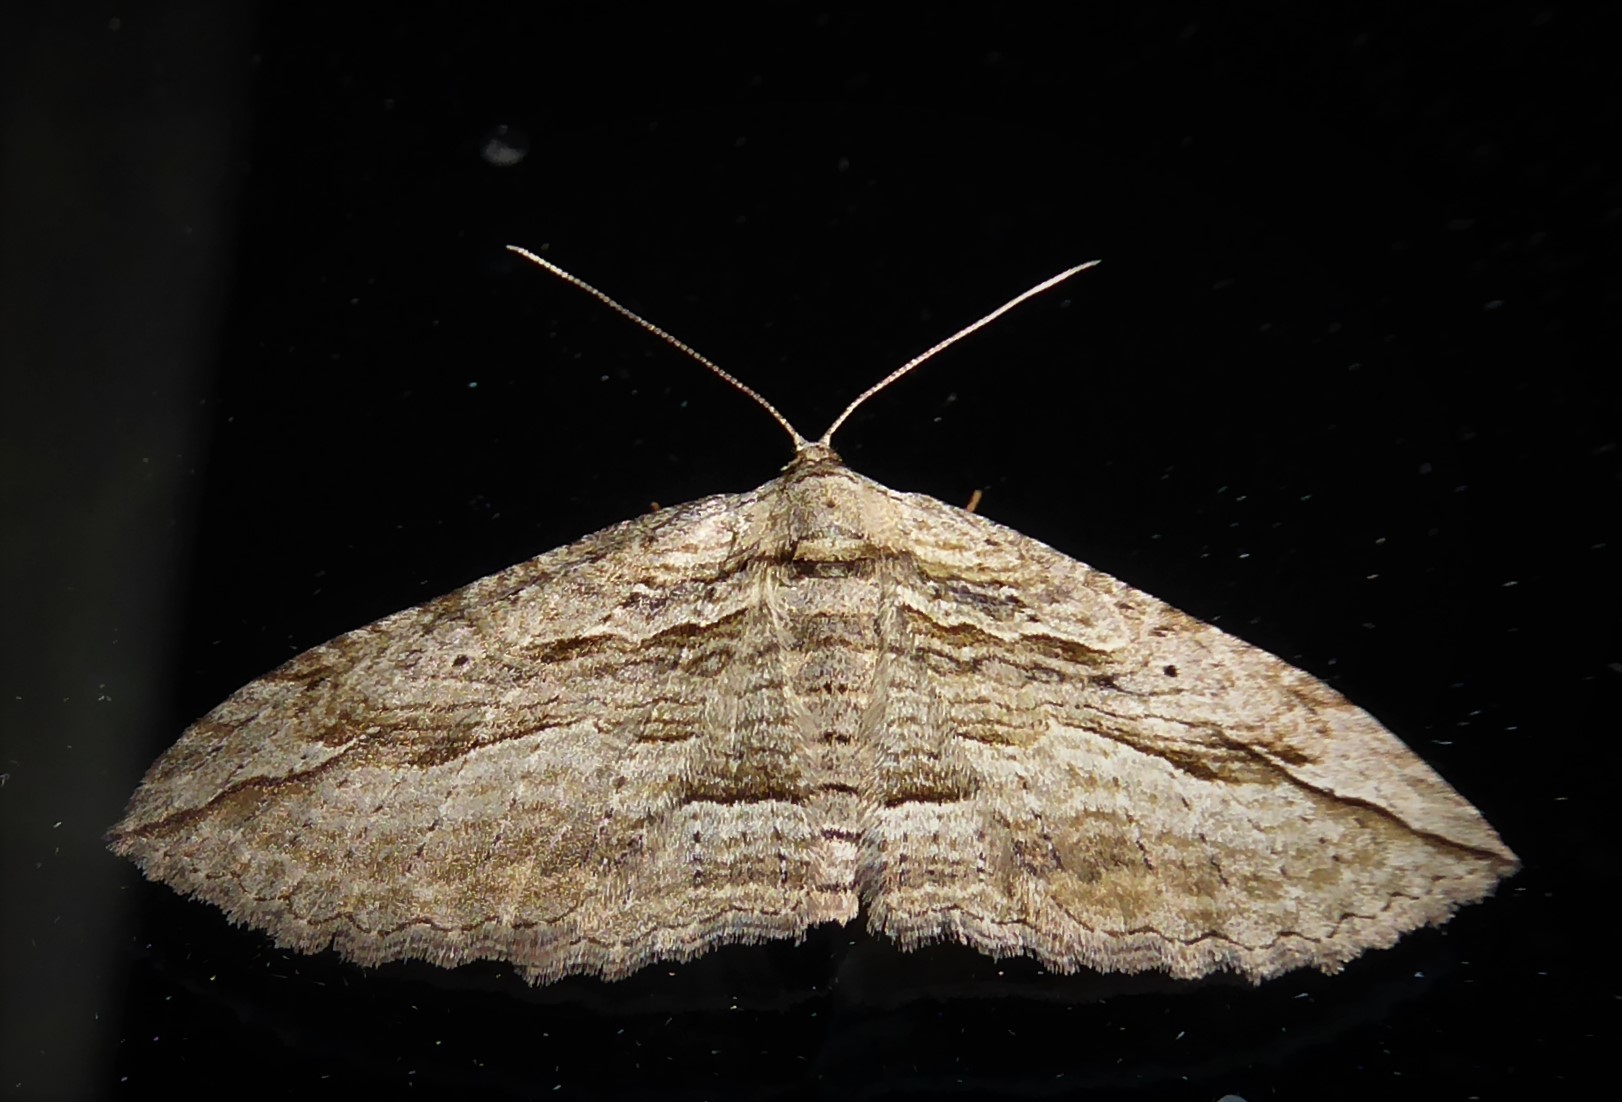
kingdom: Animalia
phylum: Arthropoda
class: Insecta
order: Lepidoptera
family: Geometridae
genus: Austrocidaria
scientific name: Austrocidaria gobiata
